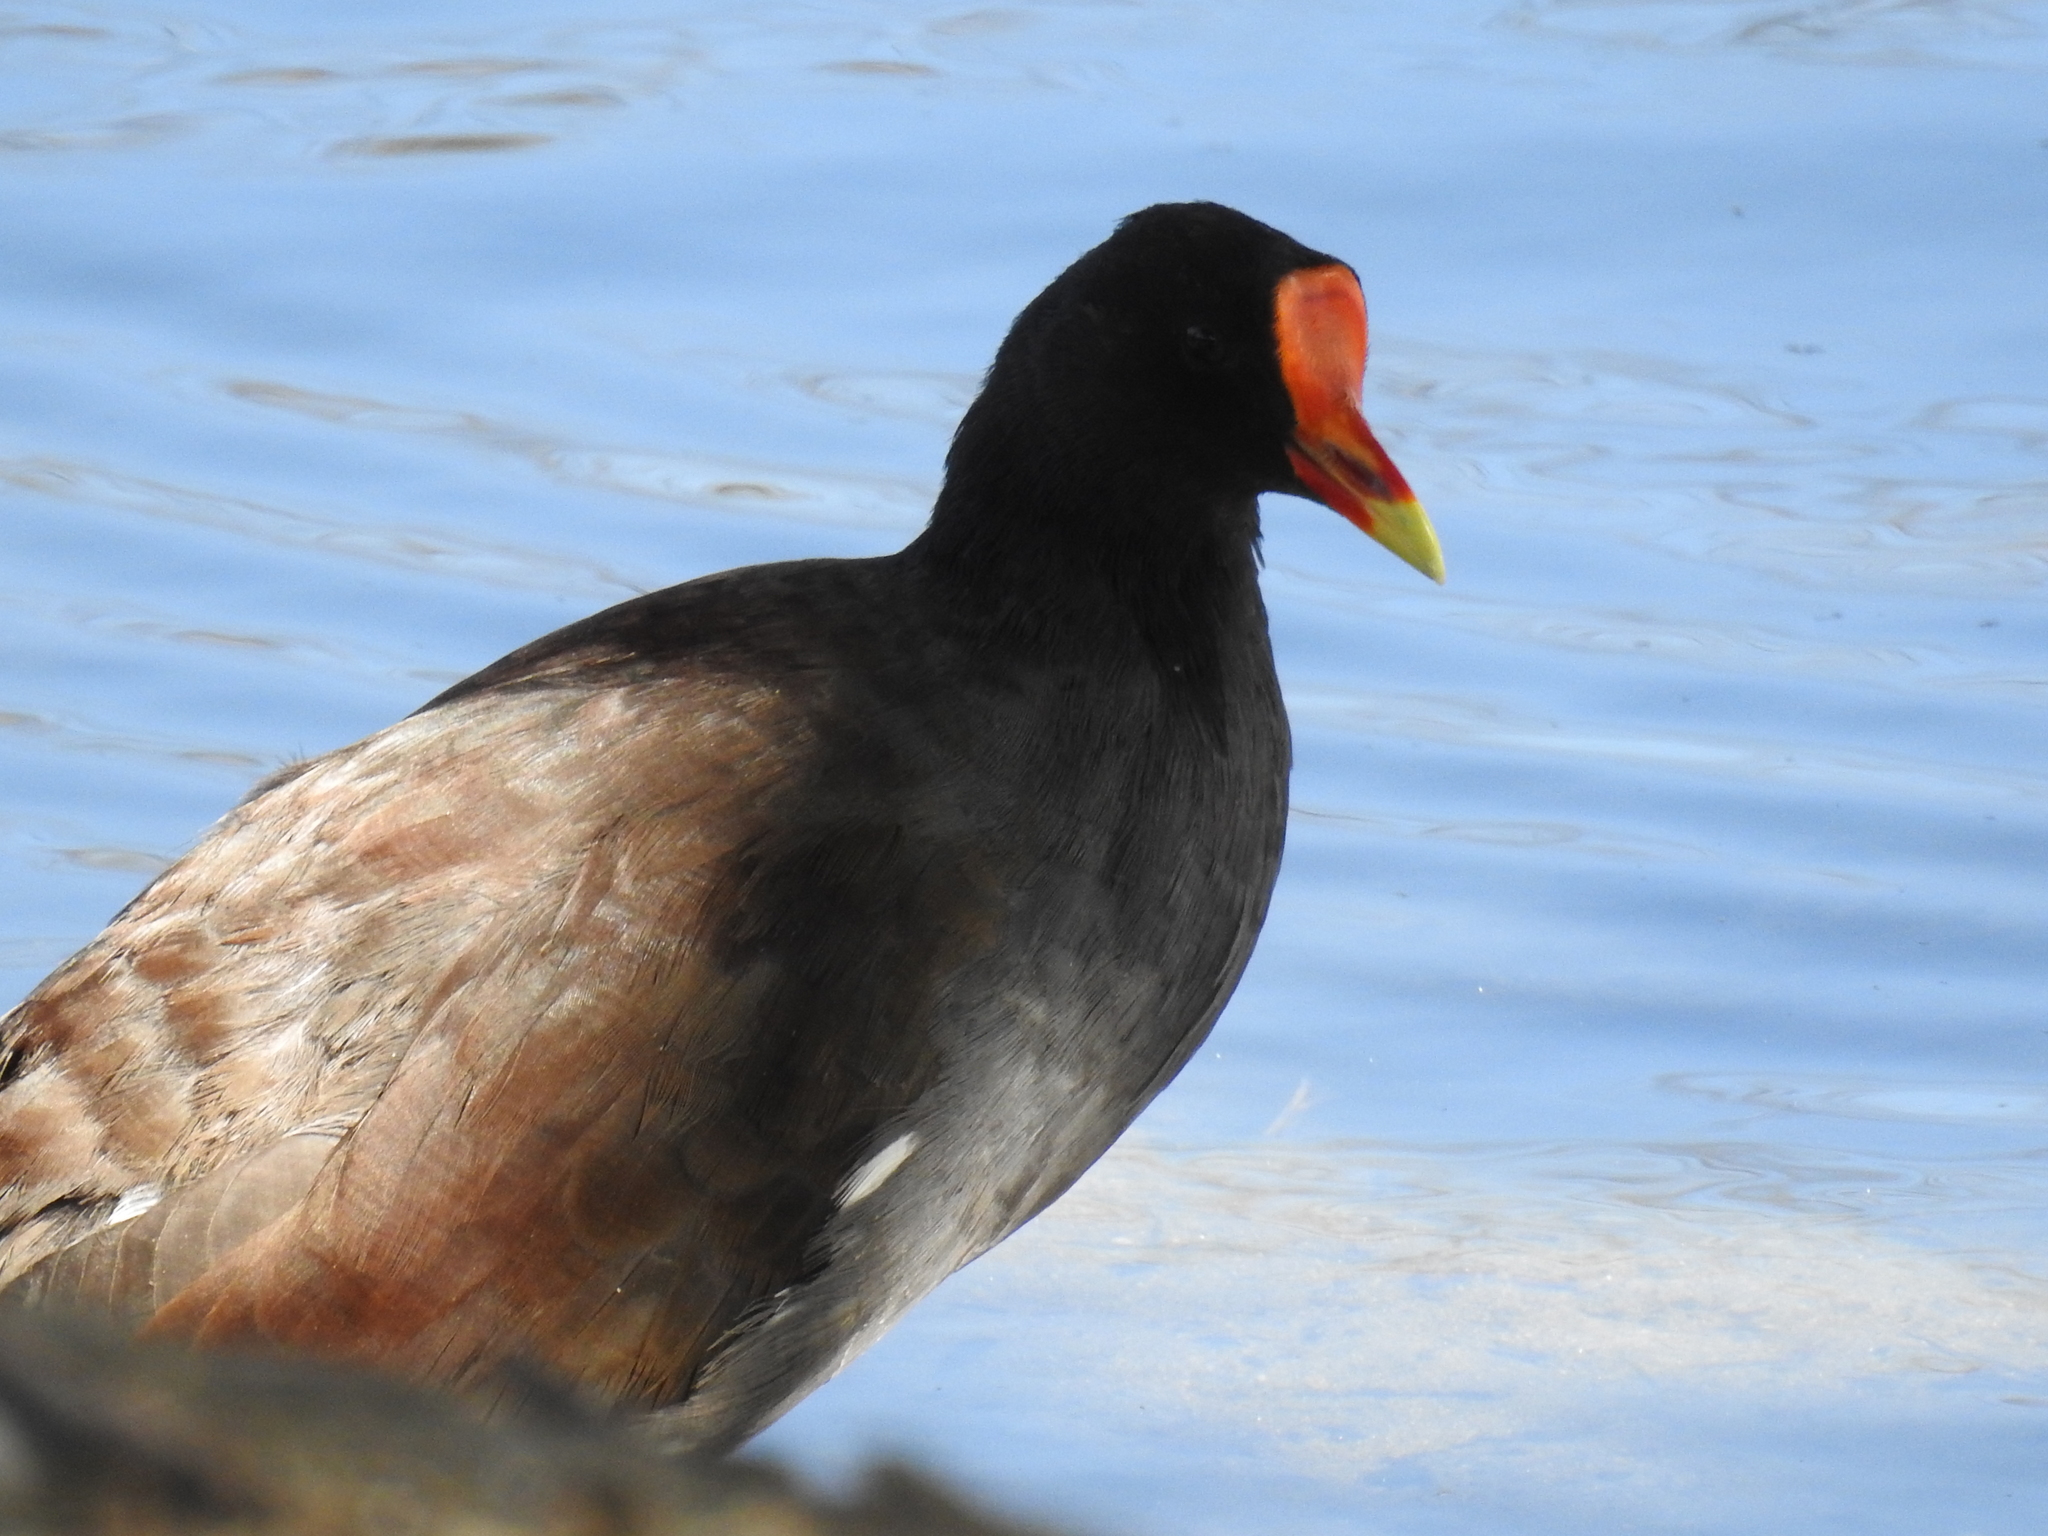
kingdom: Animalia
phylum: Chordata
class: Aves
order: Gruiformes
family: Rallidae
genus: Gallinula
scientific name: Gallinula chloropus
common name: Common moorhen
